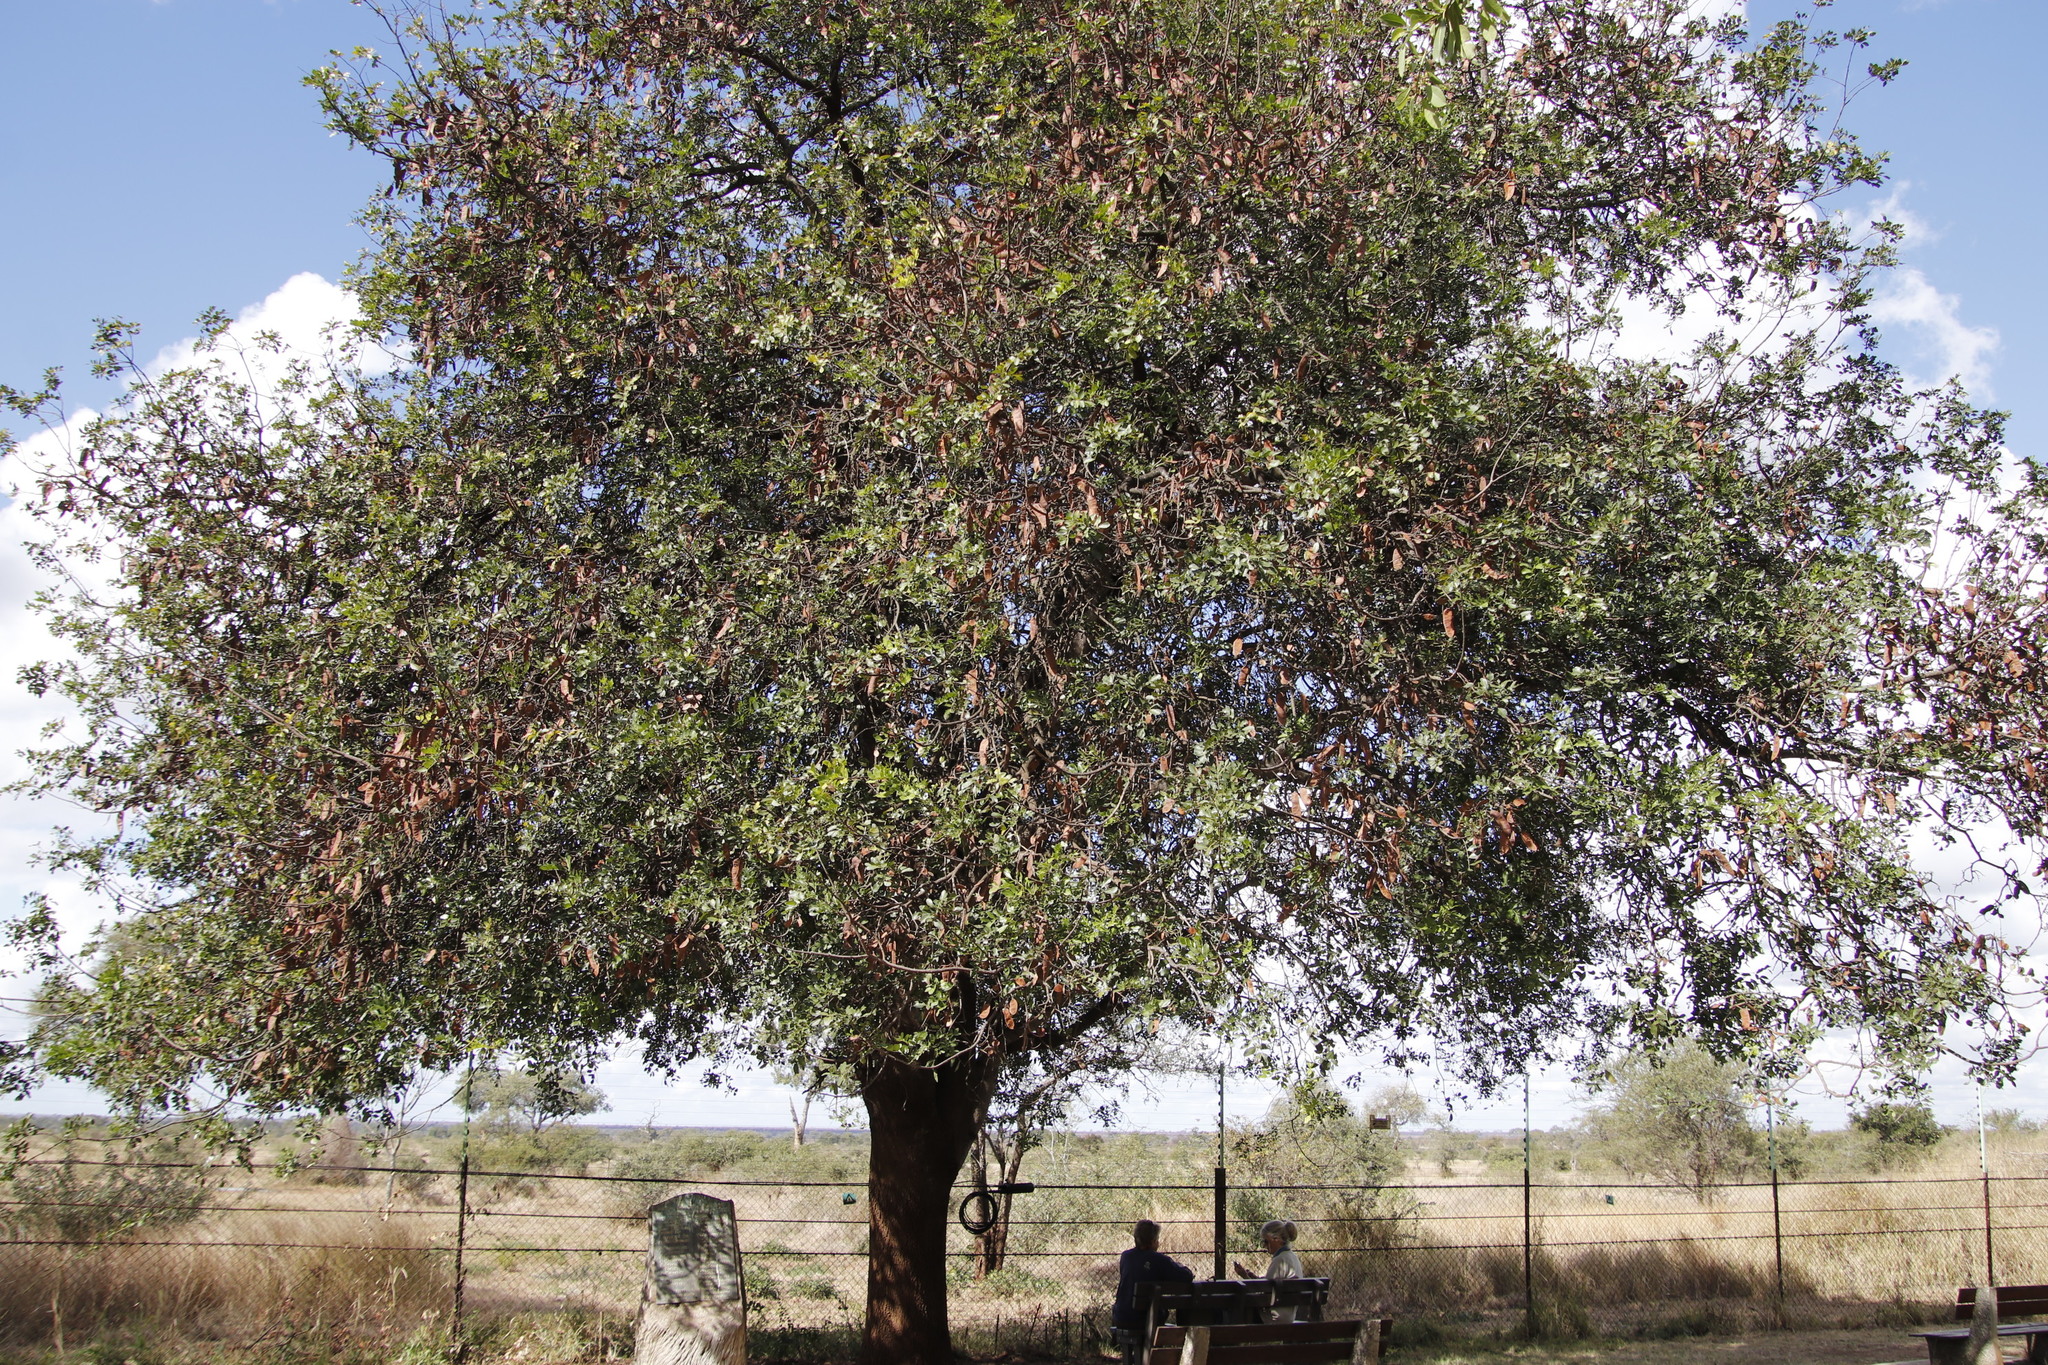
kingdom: Plantae
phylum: Tracheophyta
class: Magnoliopsida
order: Fabales
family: Fabaceae
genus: Schotia
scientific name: Schotia brachypetala
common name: Weeping boer-bean
